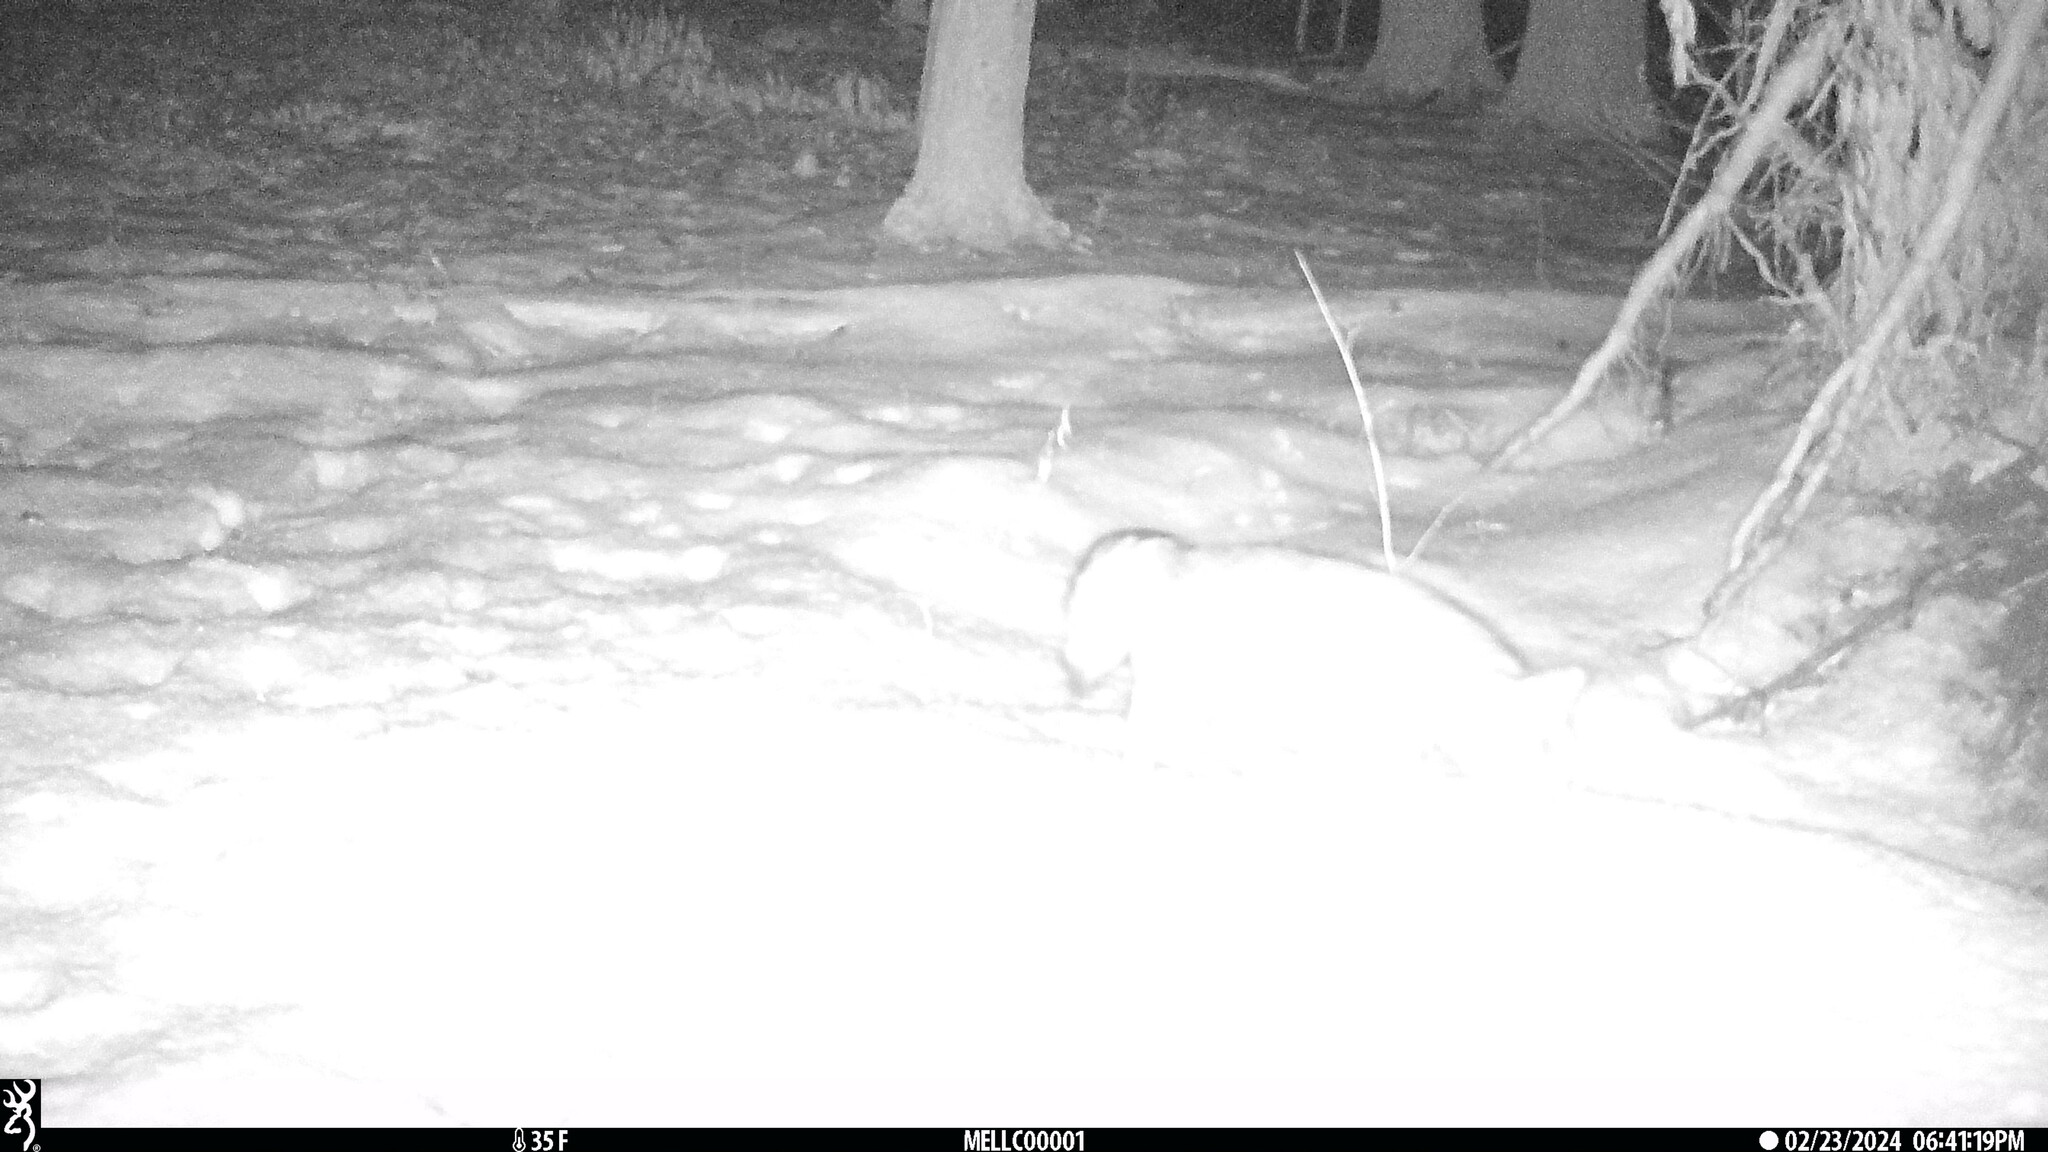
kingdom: Animalia
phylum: Chordata
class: Mammalia
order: Carnivora
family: Canidae
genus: Urocyon
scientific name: Urocyon cinereoargenteus
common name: Gray fox
